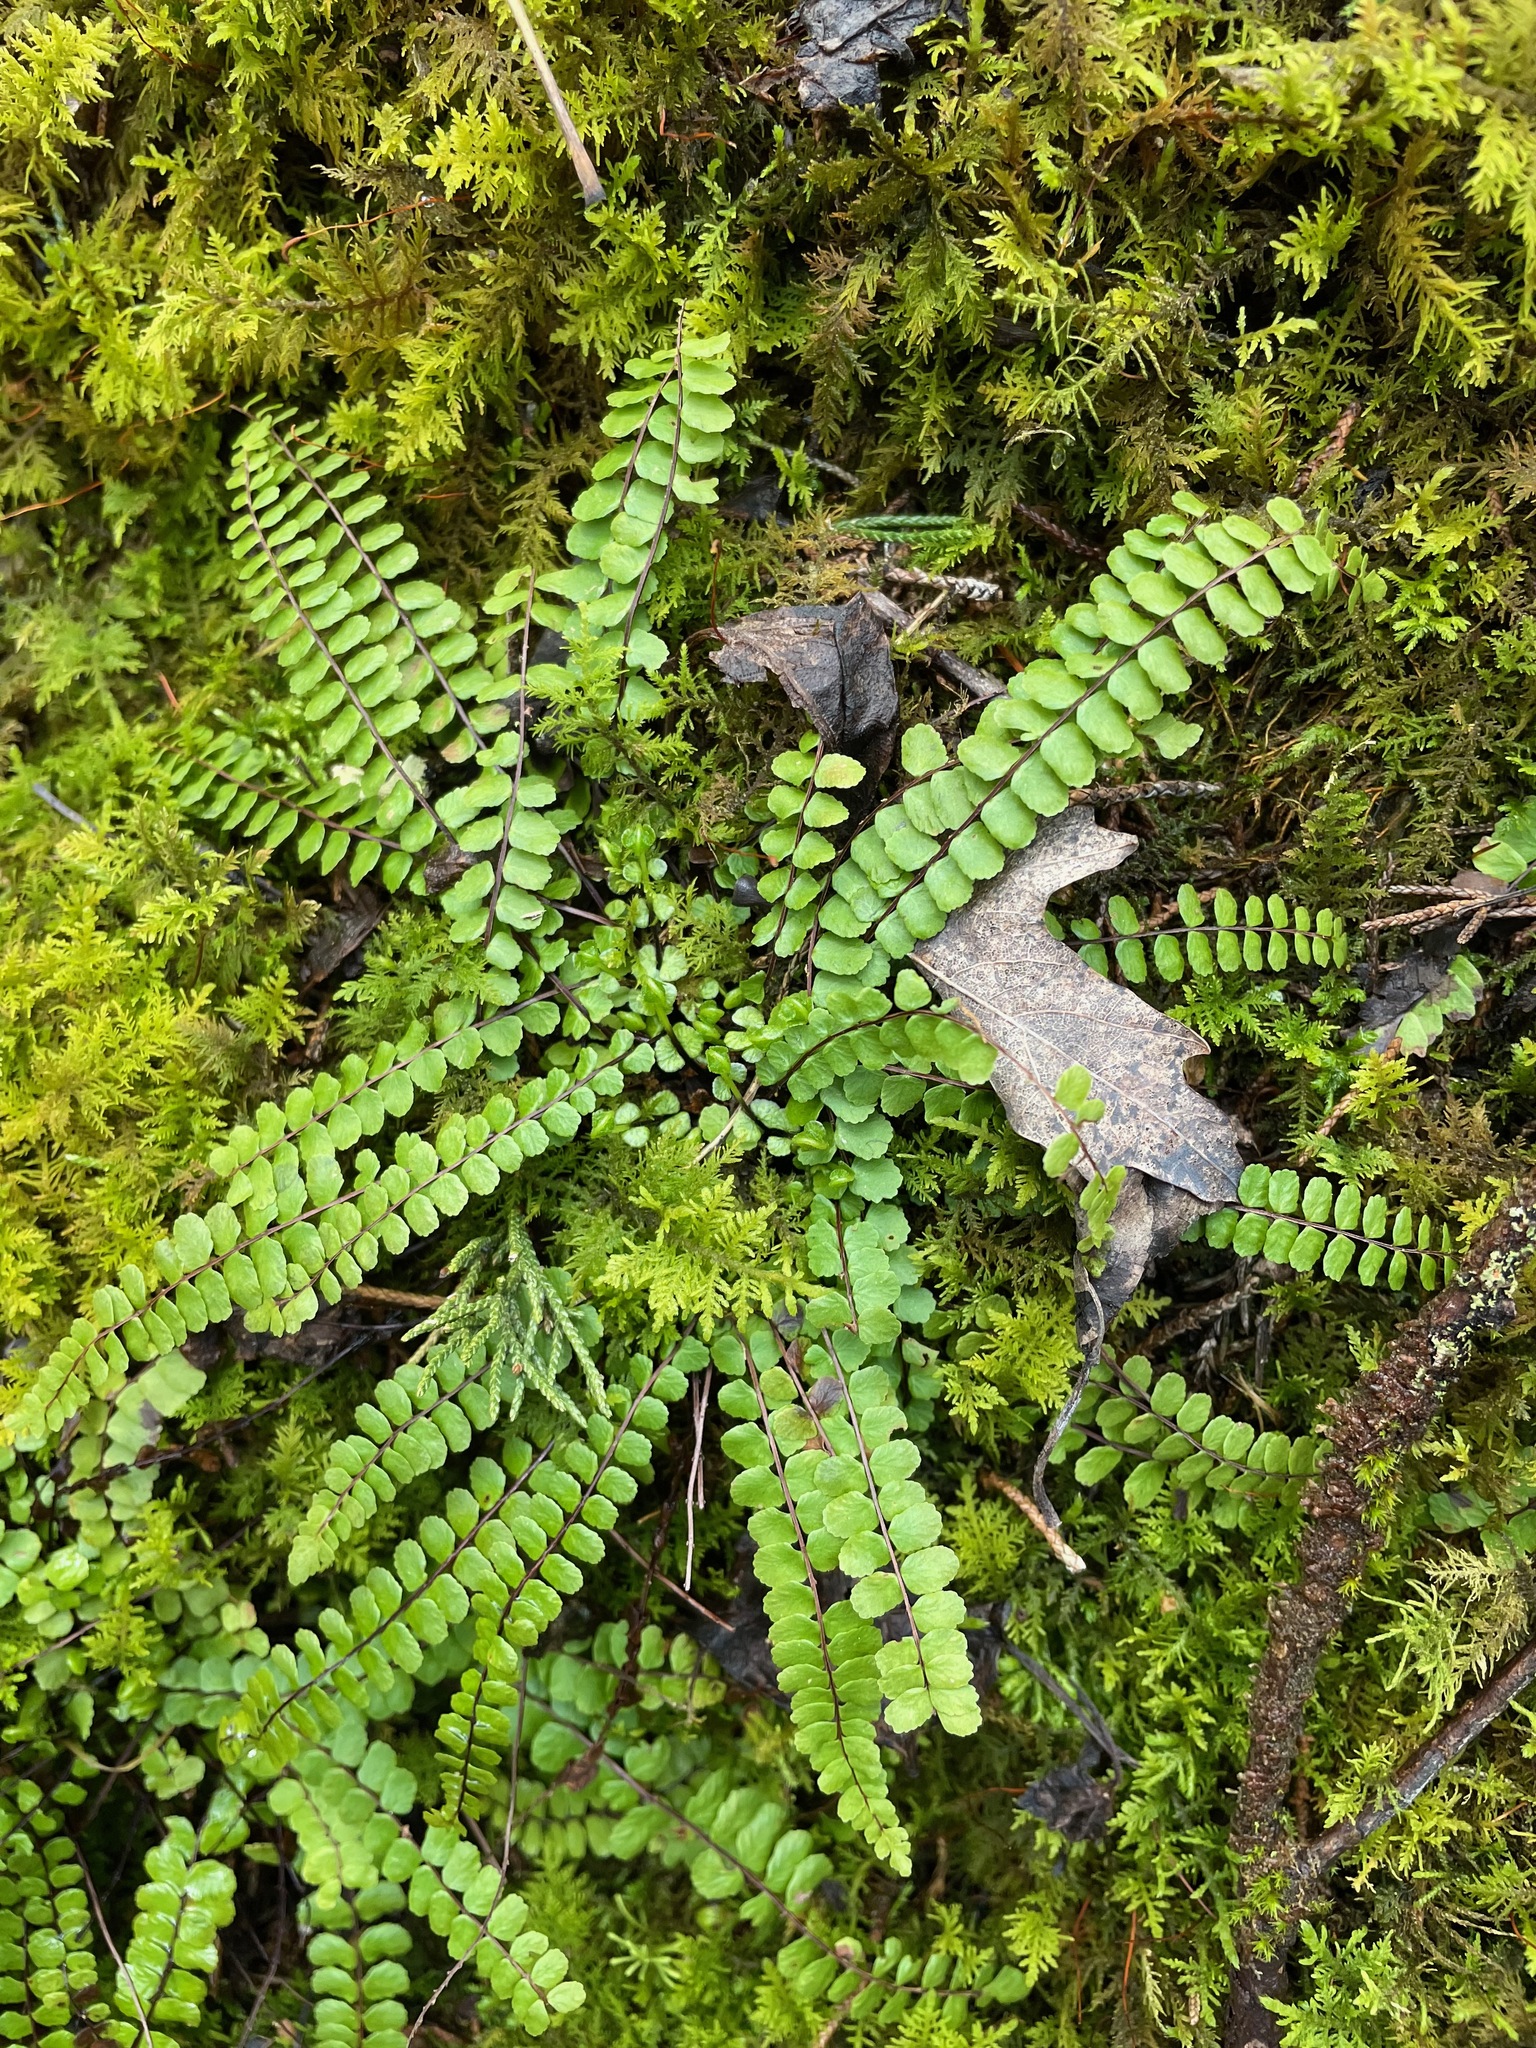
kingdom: Plantae
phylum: Tracheophyta
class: Polypodiopsida
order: Polypodiales
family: Aspleniaceae
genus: Asplenium
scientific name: Asplenium trichomanes
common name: Maidenhair spleenwort
